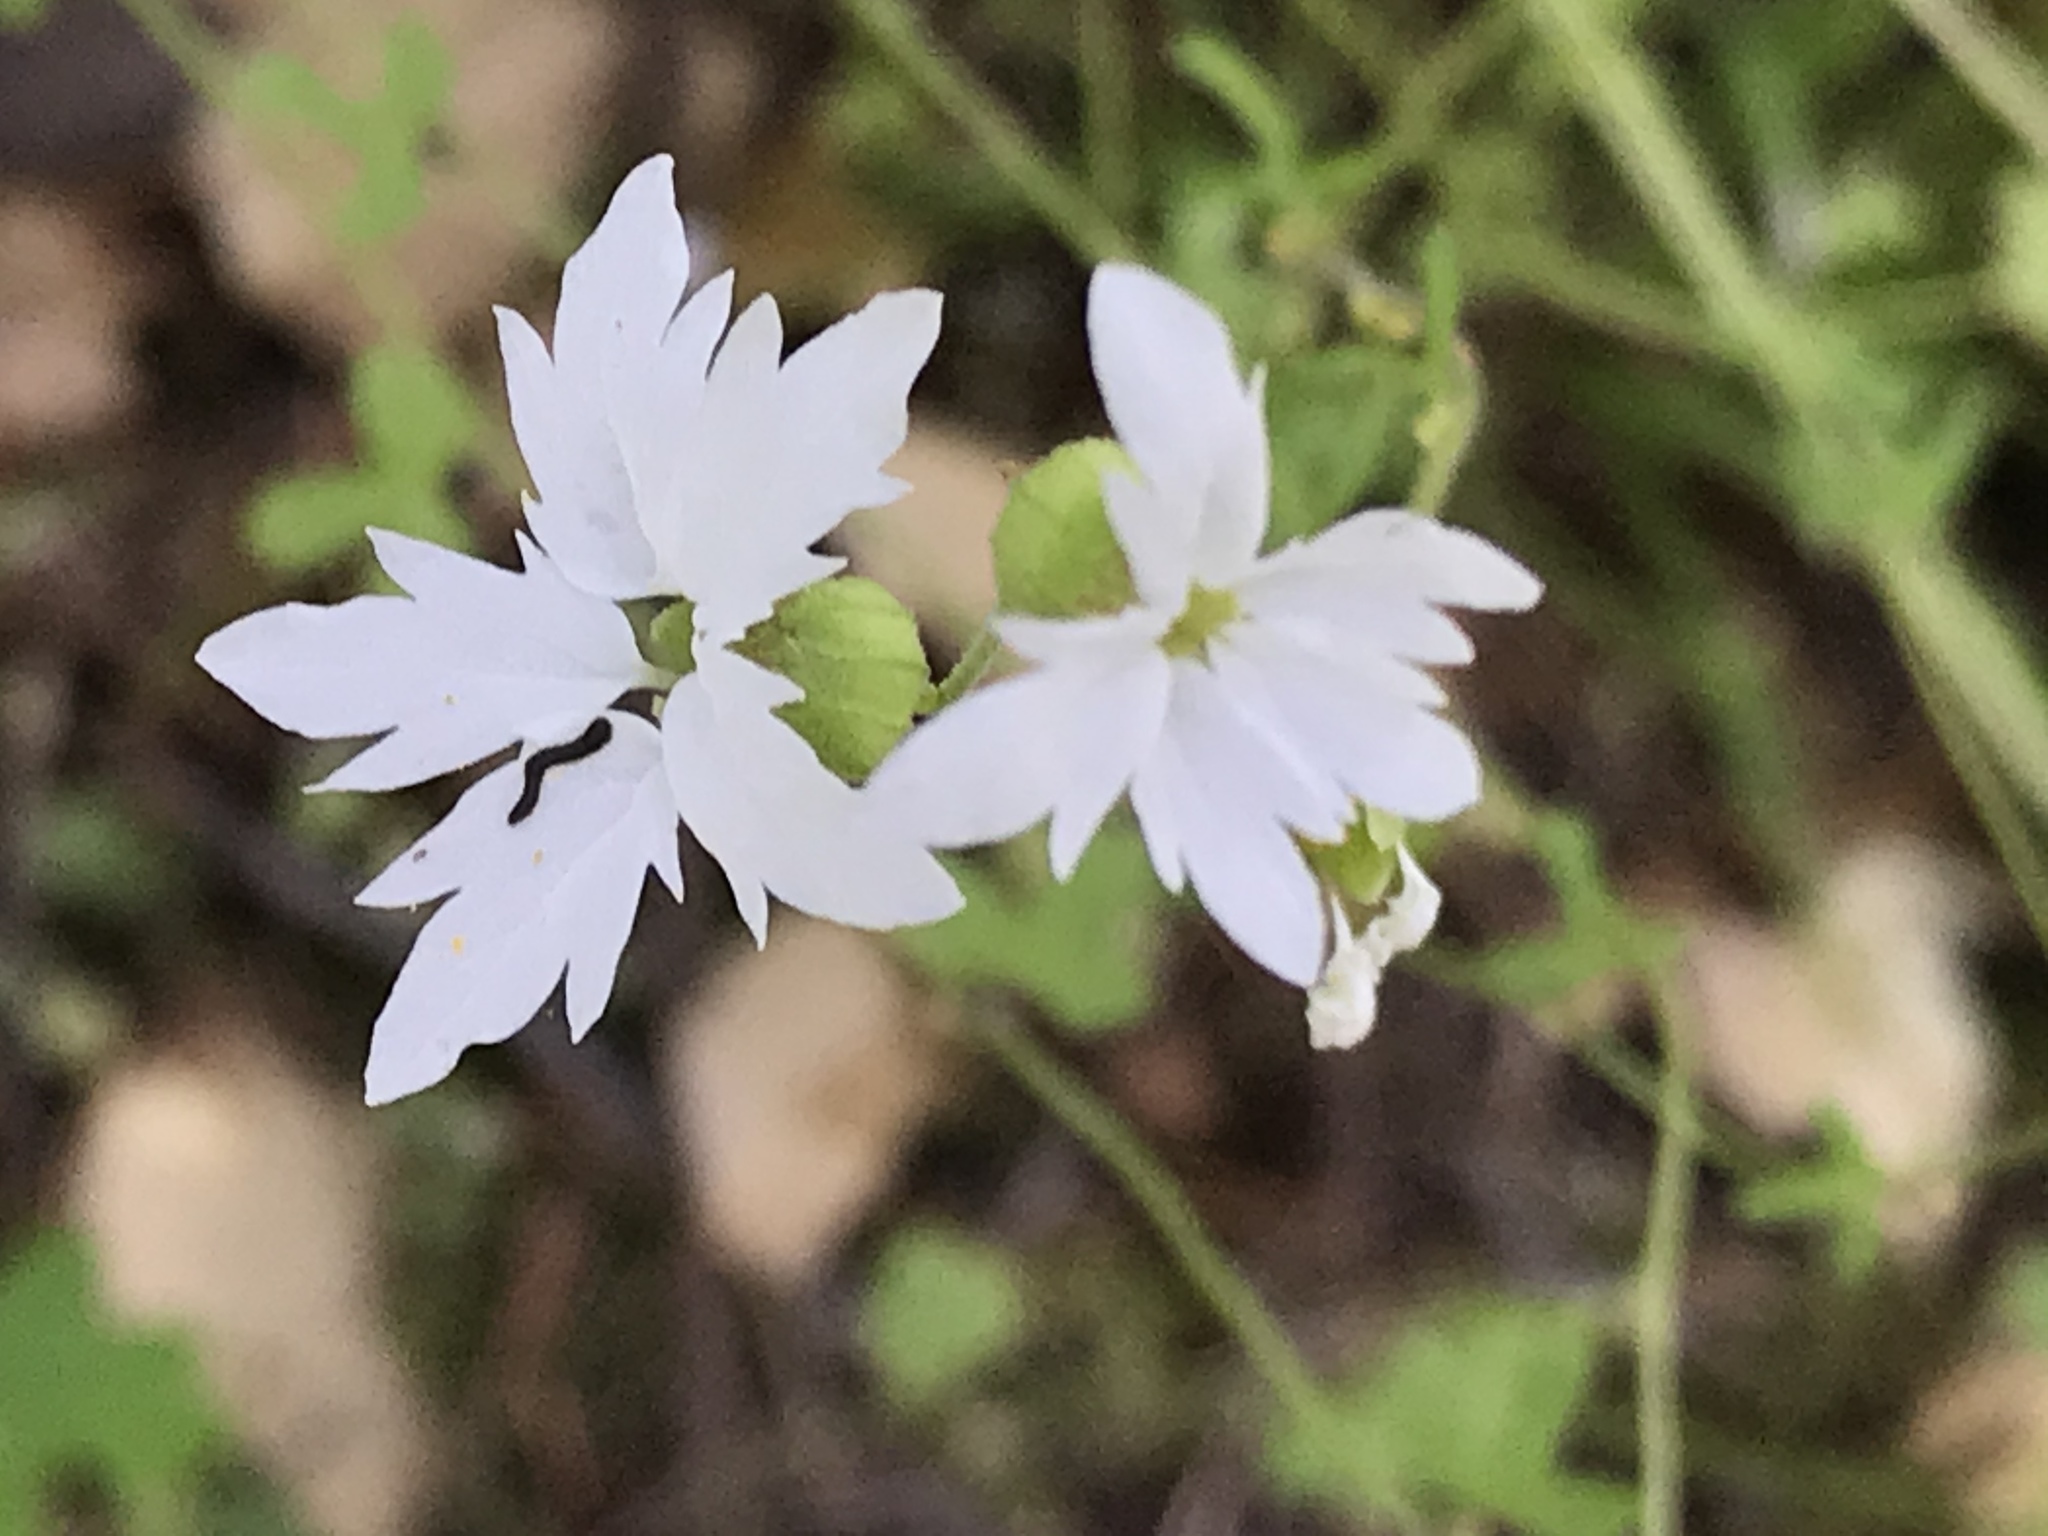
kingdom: Plantae
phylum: Tracheophyta
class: Magnoliopsida
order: Saxifragales
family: Saxifragaceae
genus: Lithophragma
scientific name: Lithophragma heterophyllum
